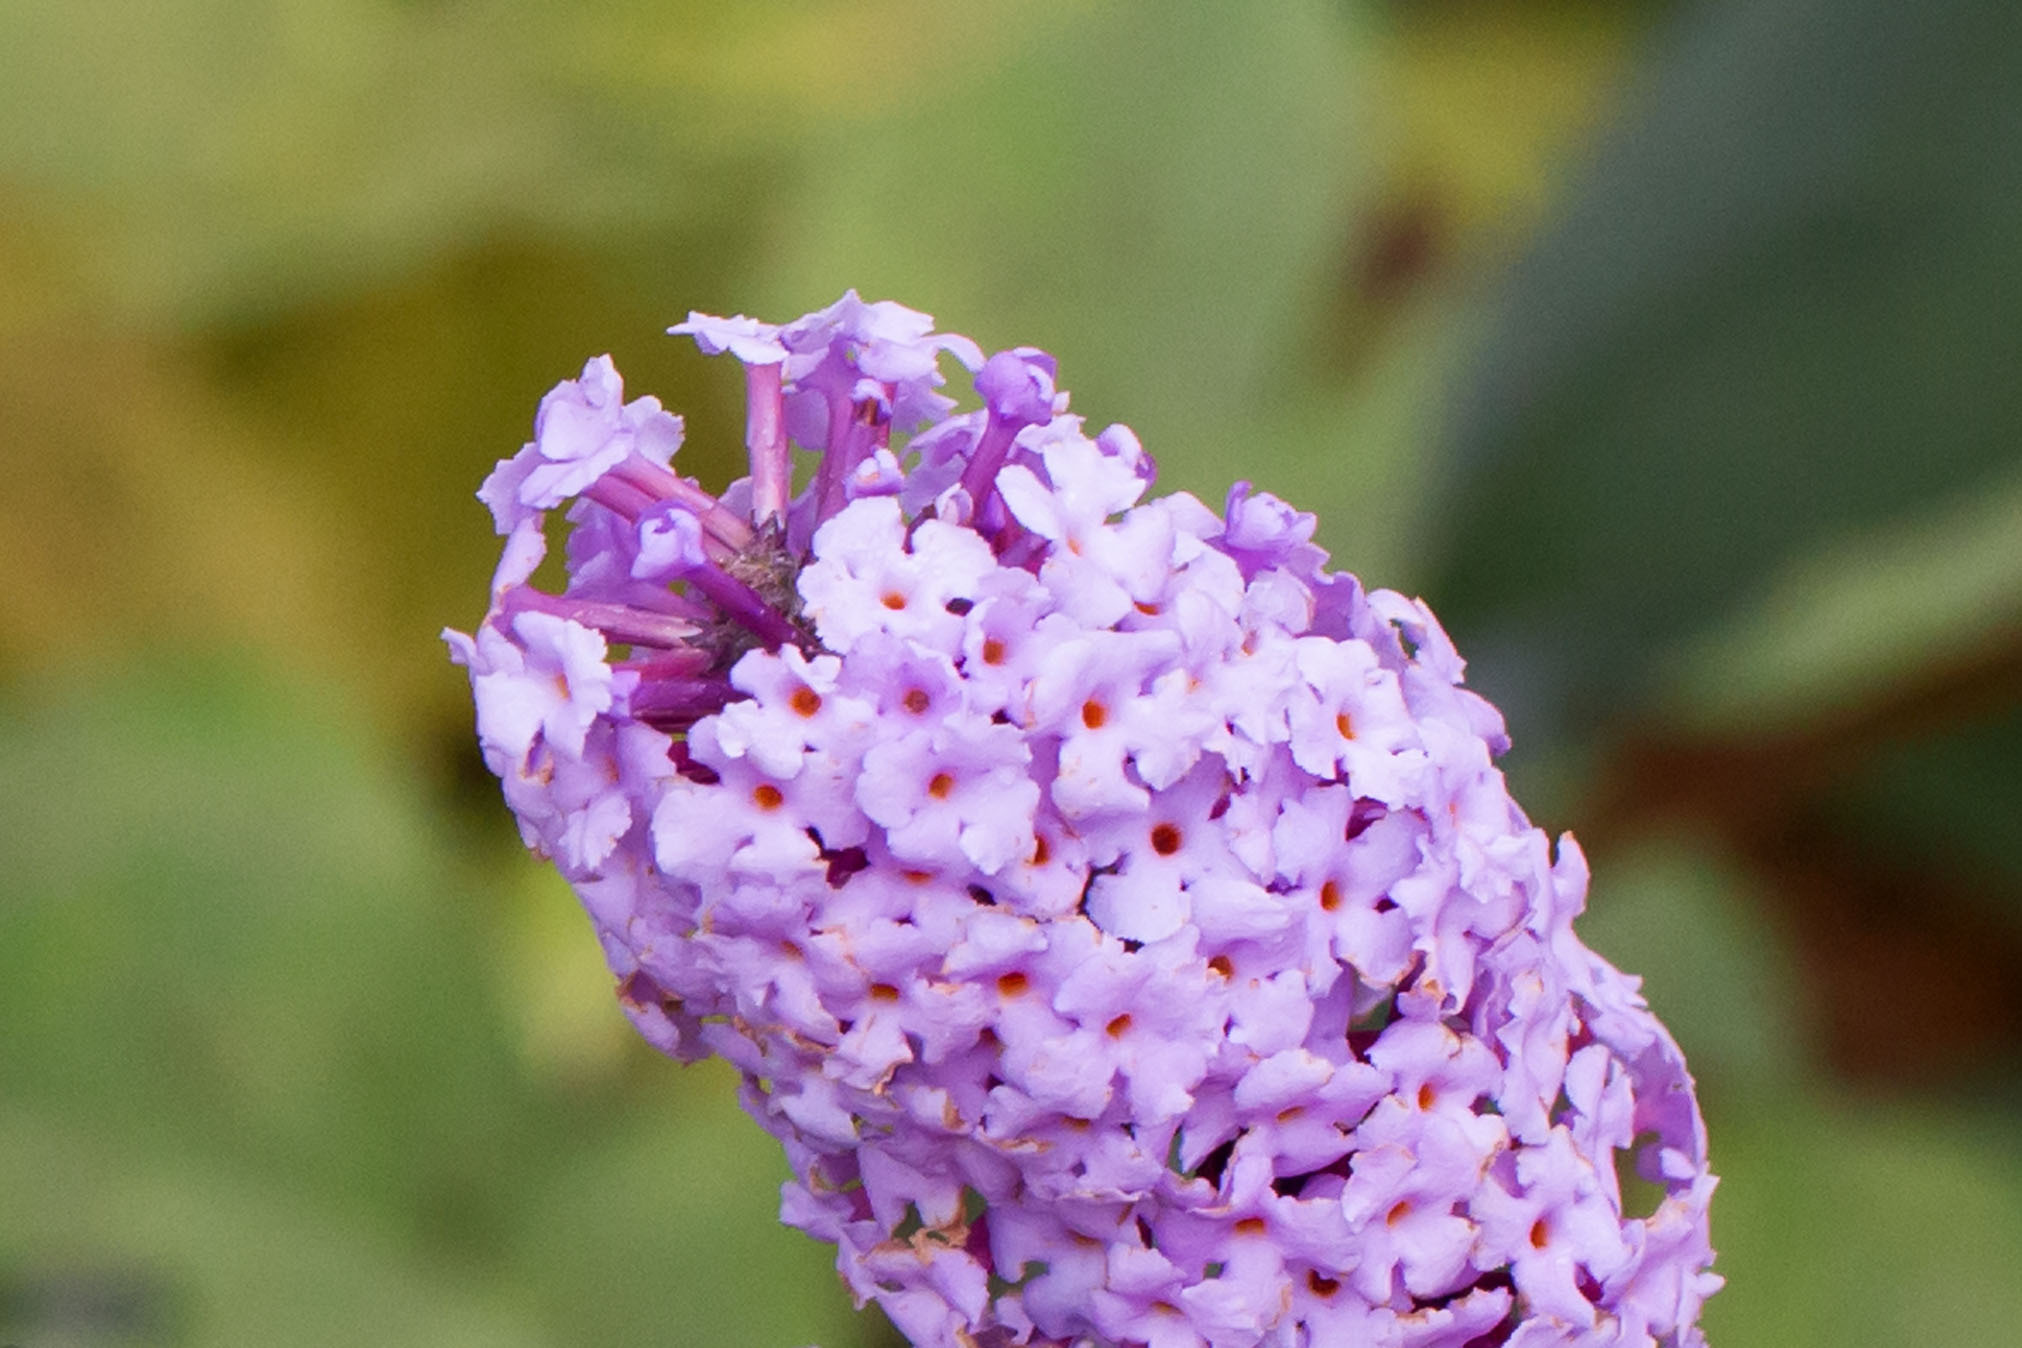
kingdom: Plantae
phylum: Tracheophyta
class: Magnoliopsida
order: Lamiales
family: Scrophulariaceae
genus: Buddleja
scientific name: Buddleja davidii
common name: Butterfly-bush
